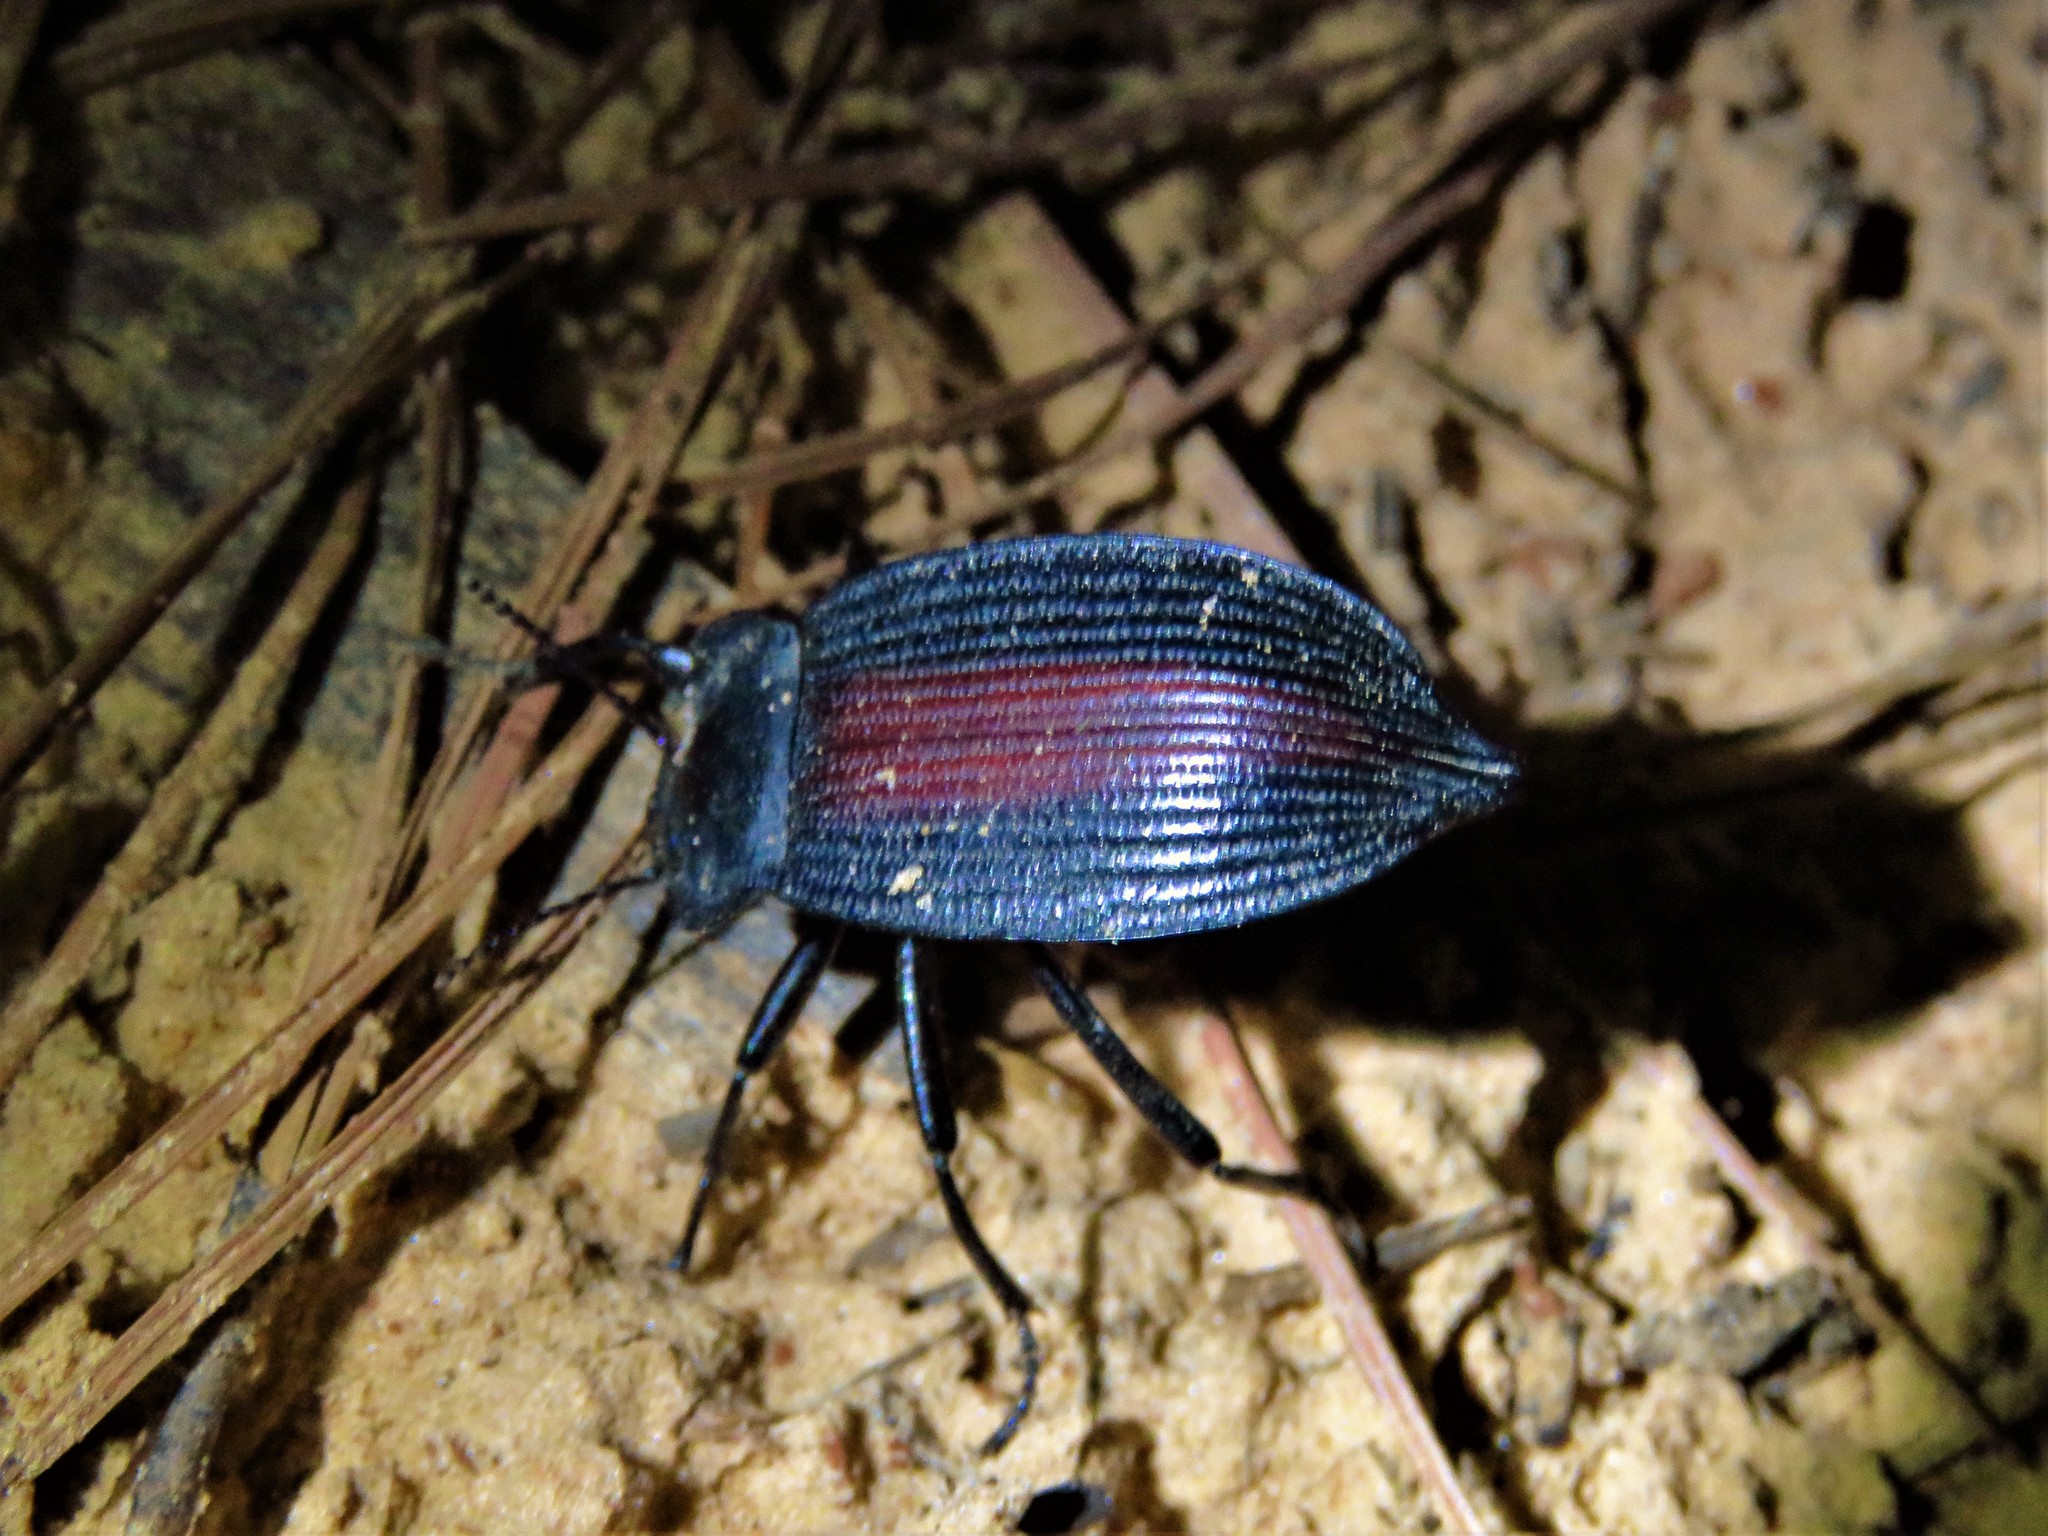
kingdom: Animalia
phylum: Arthropoda
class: Insecta
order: Coleoptera
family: Tenebrionidae
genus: Eleodes
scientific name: Eleodes suturalis
